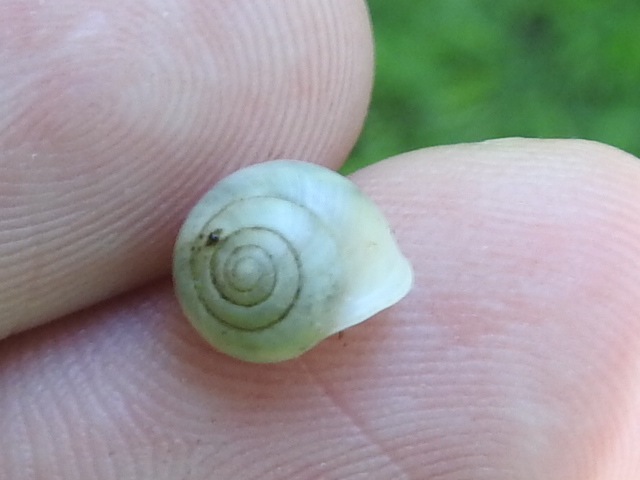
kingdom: Animalia
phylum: Mollusca
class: Gastropoda
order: Cycloneritida
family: Helicinidae
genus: Helicina
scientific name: Helicina orbiculata
